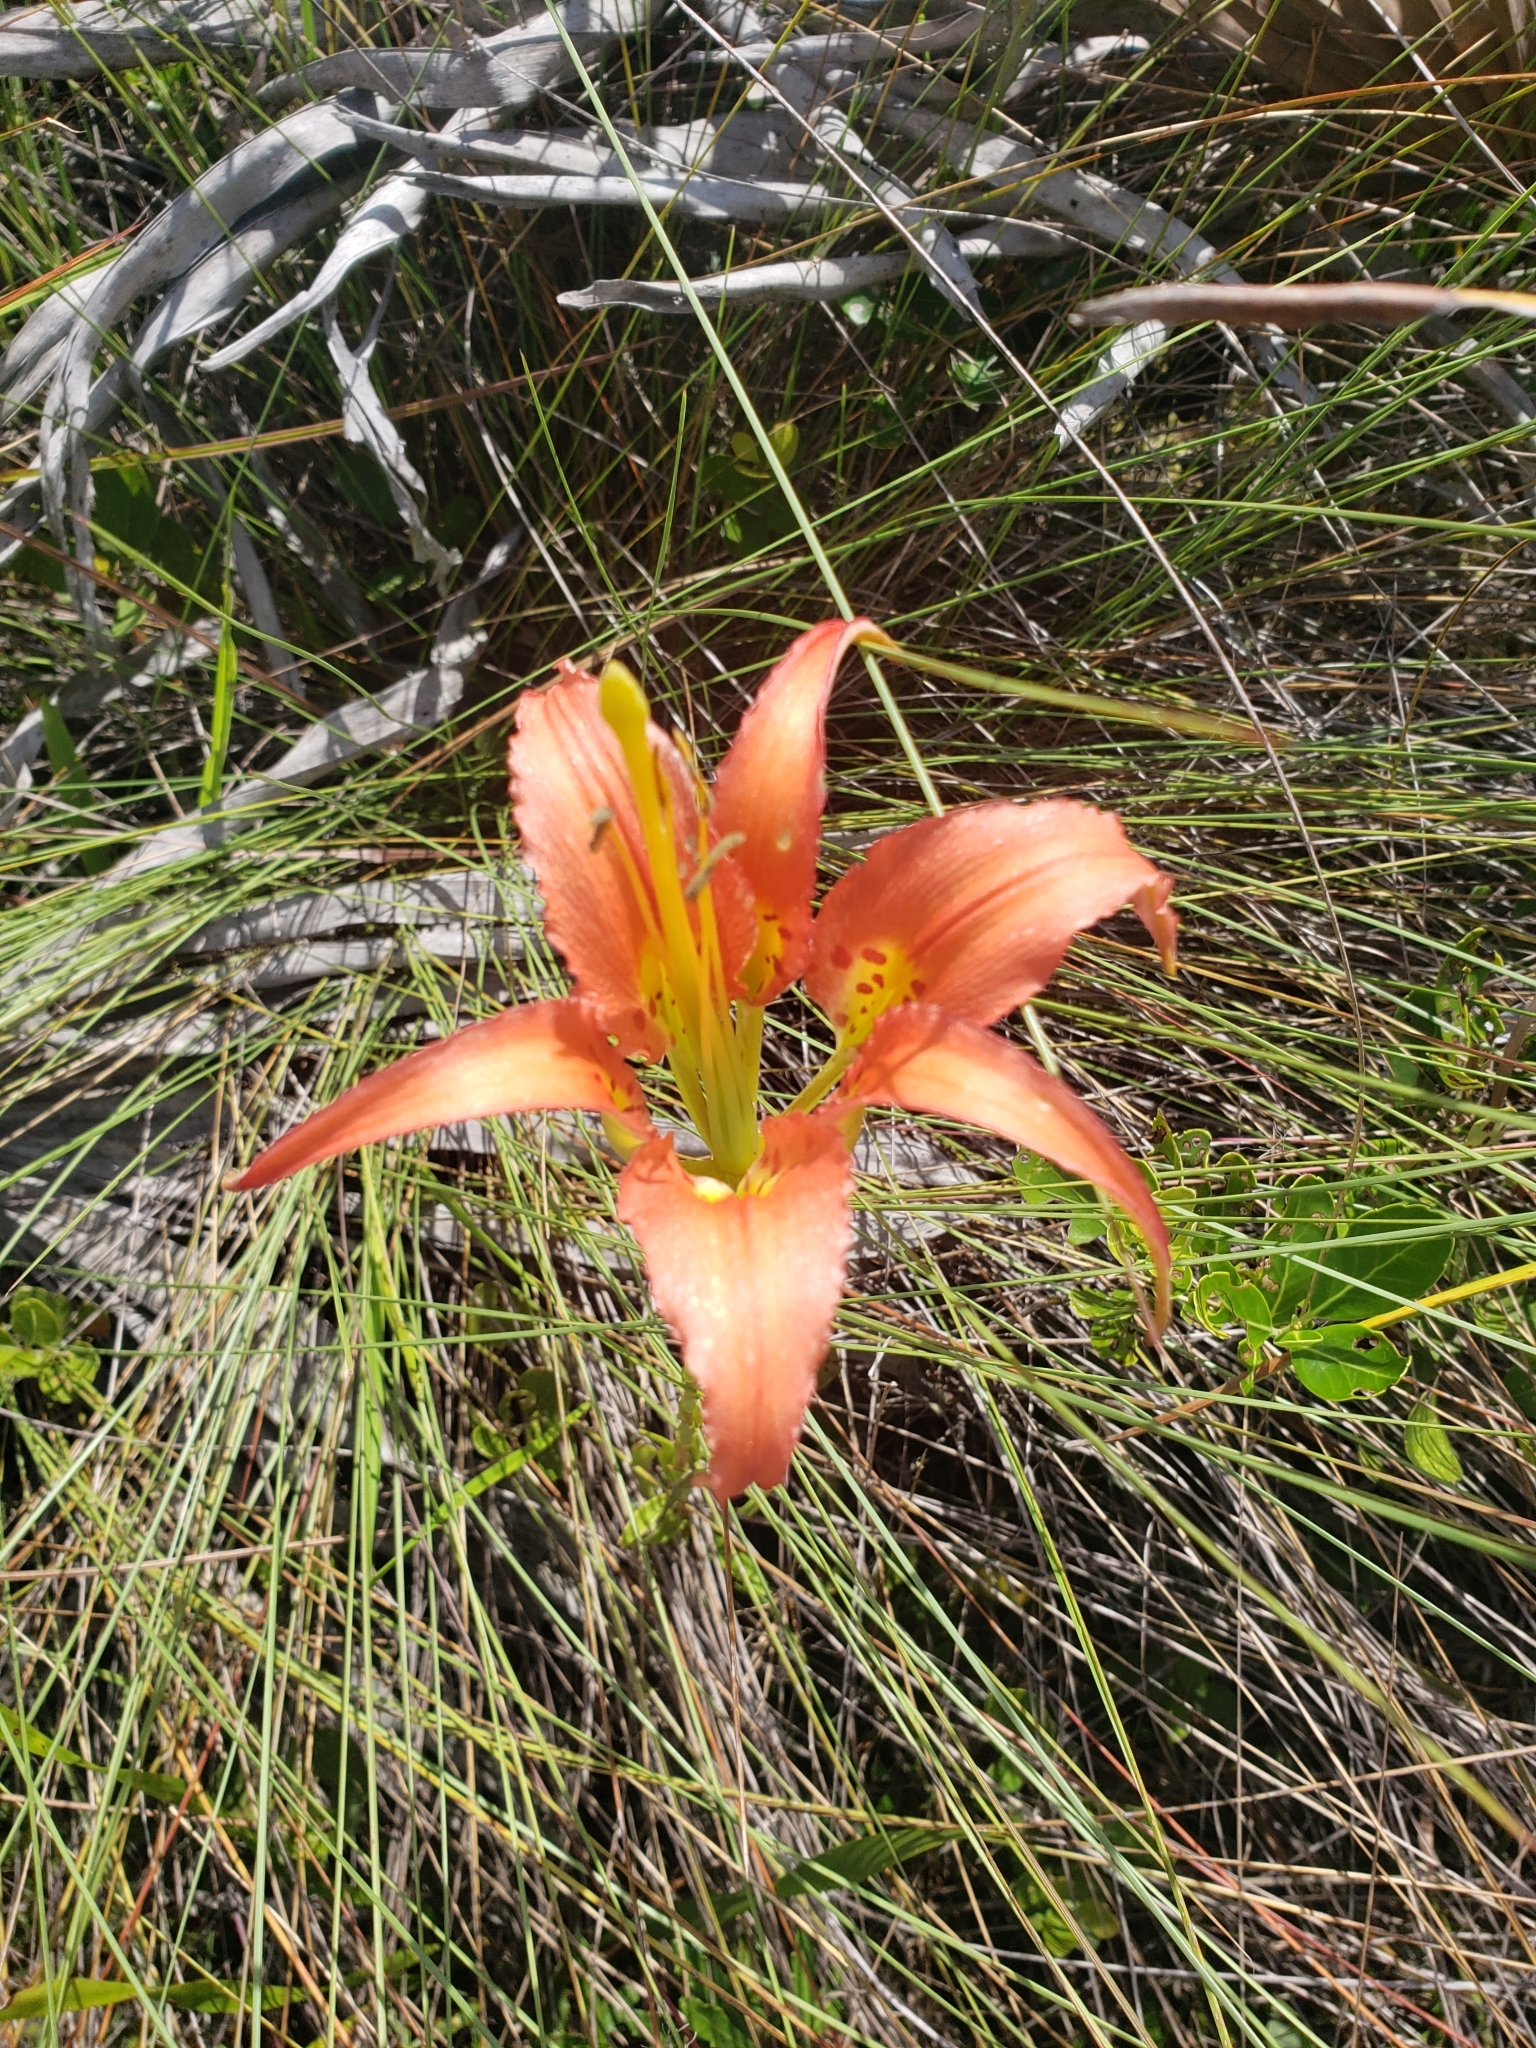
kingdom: Plantae
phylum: Tracheophyta
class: Liliopsida
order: Liliales
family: Liliaceae
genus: Lilium
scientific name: Lilium catesbaei
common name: Catesby's lily
